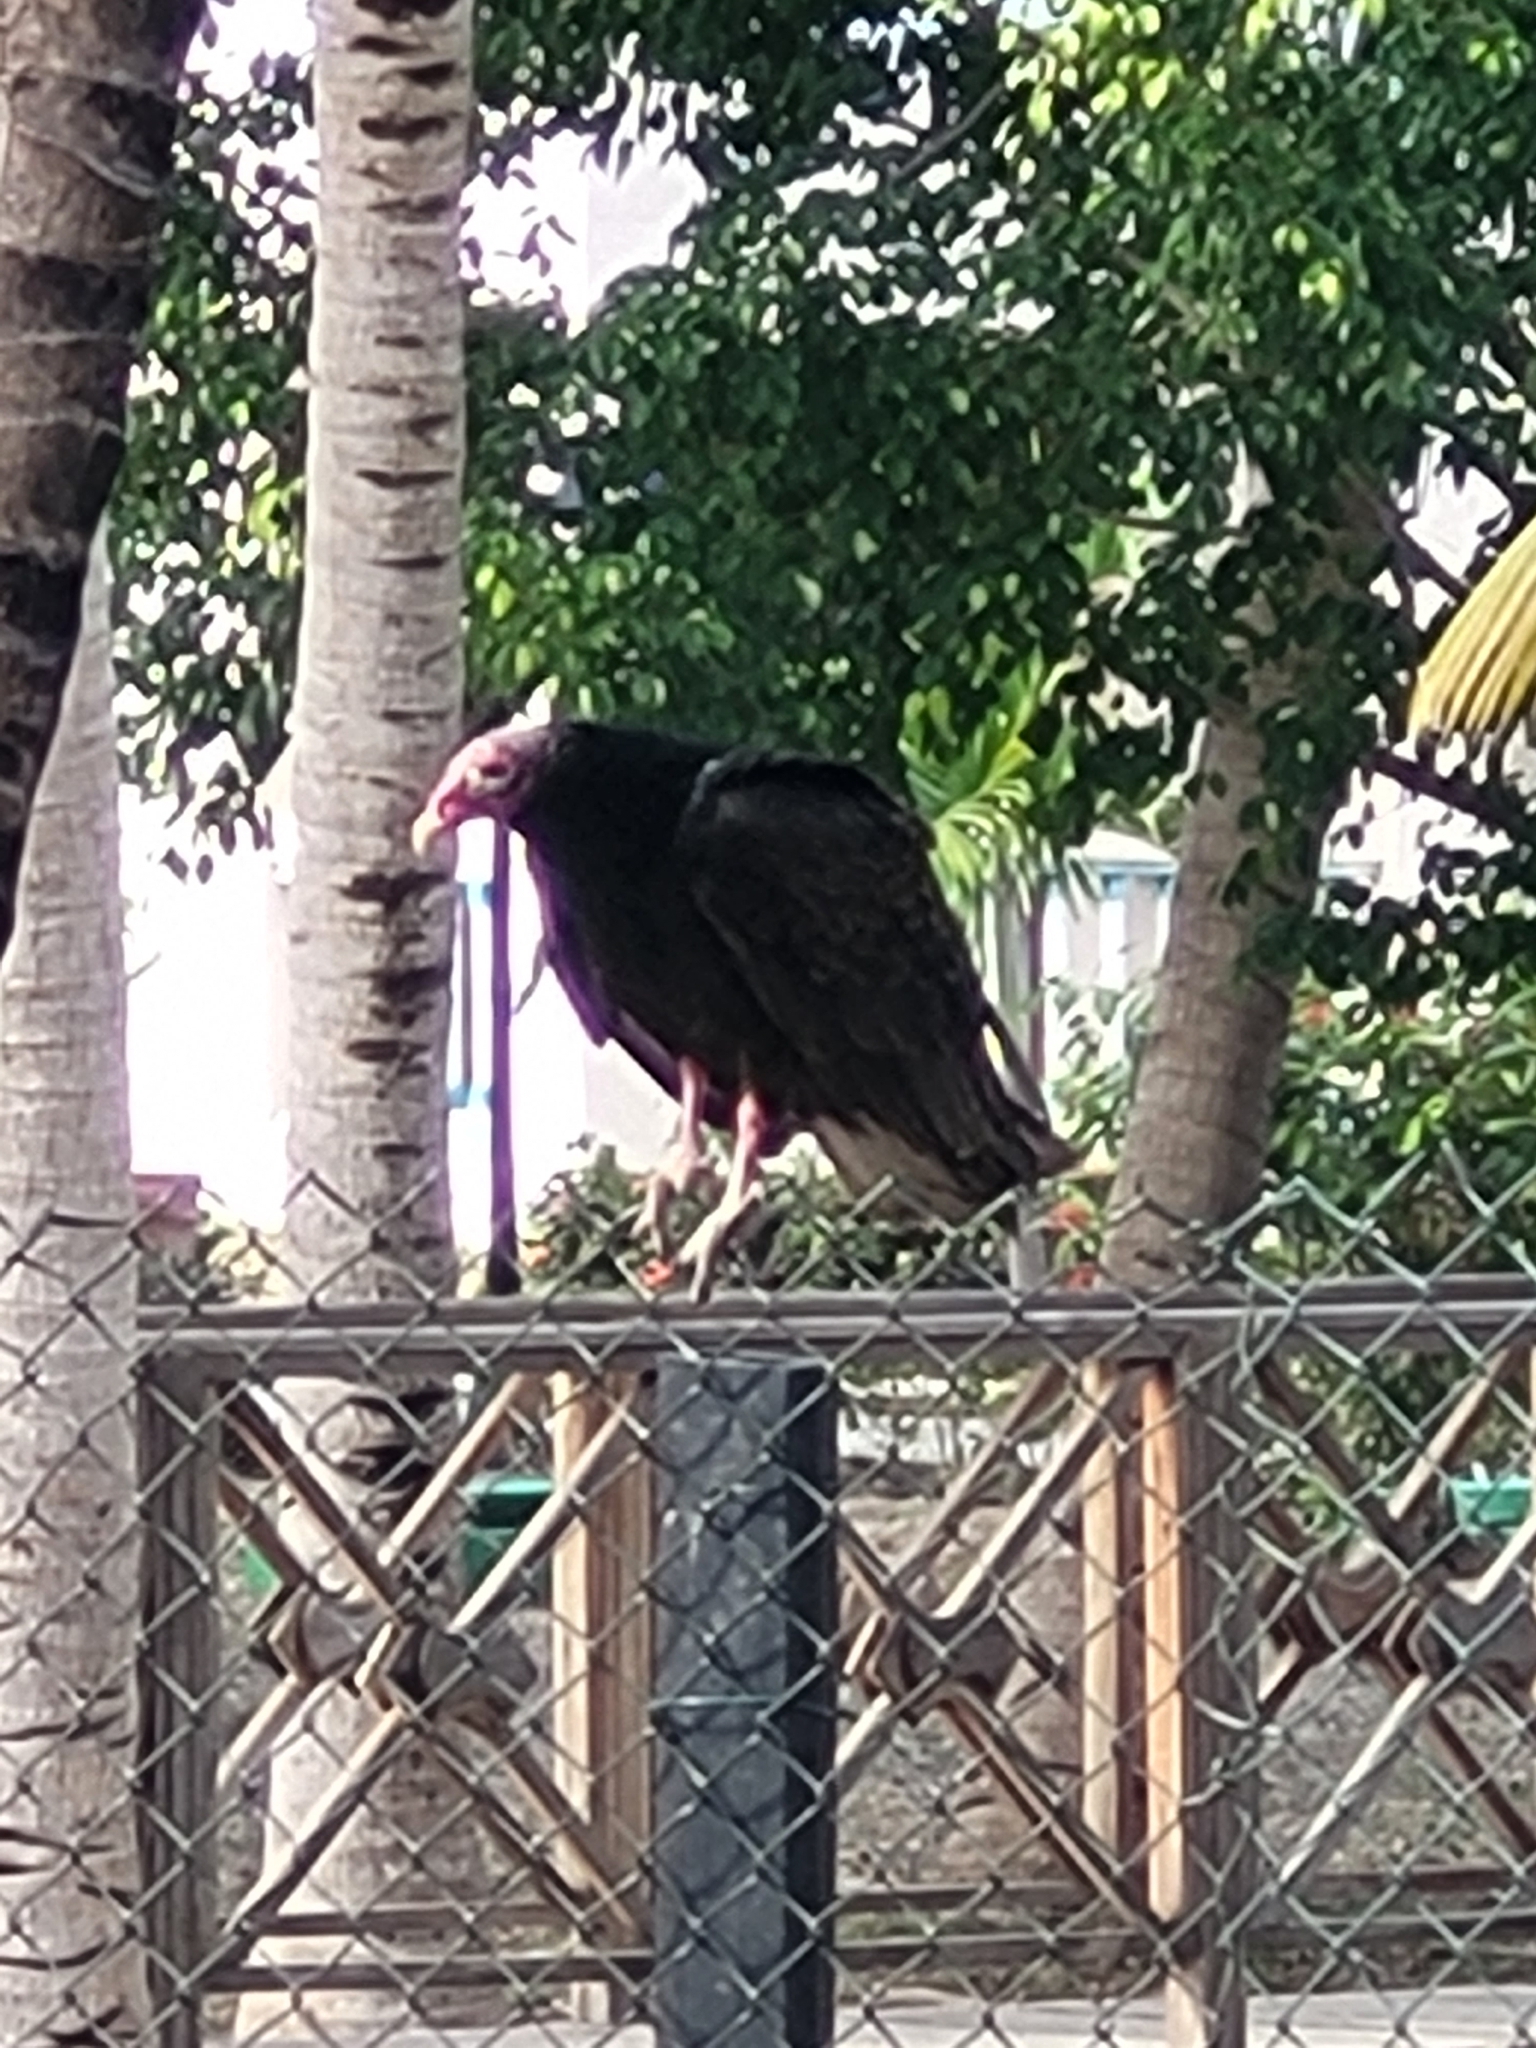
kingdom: Animalia
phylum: Chordata
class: Aves
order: Accipitriformes
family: Cathartidae
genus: Cathartes
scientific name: Cathartes aura
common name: Turkey vulture
